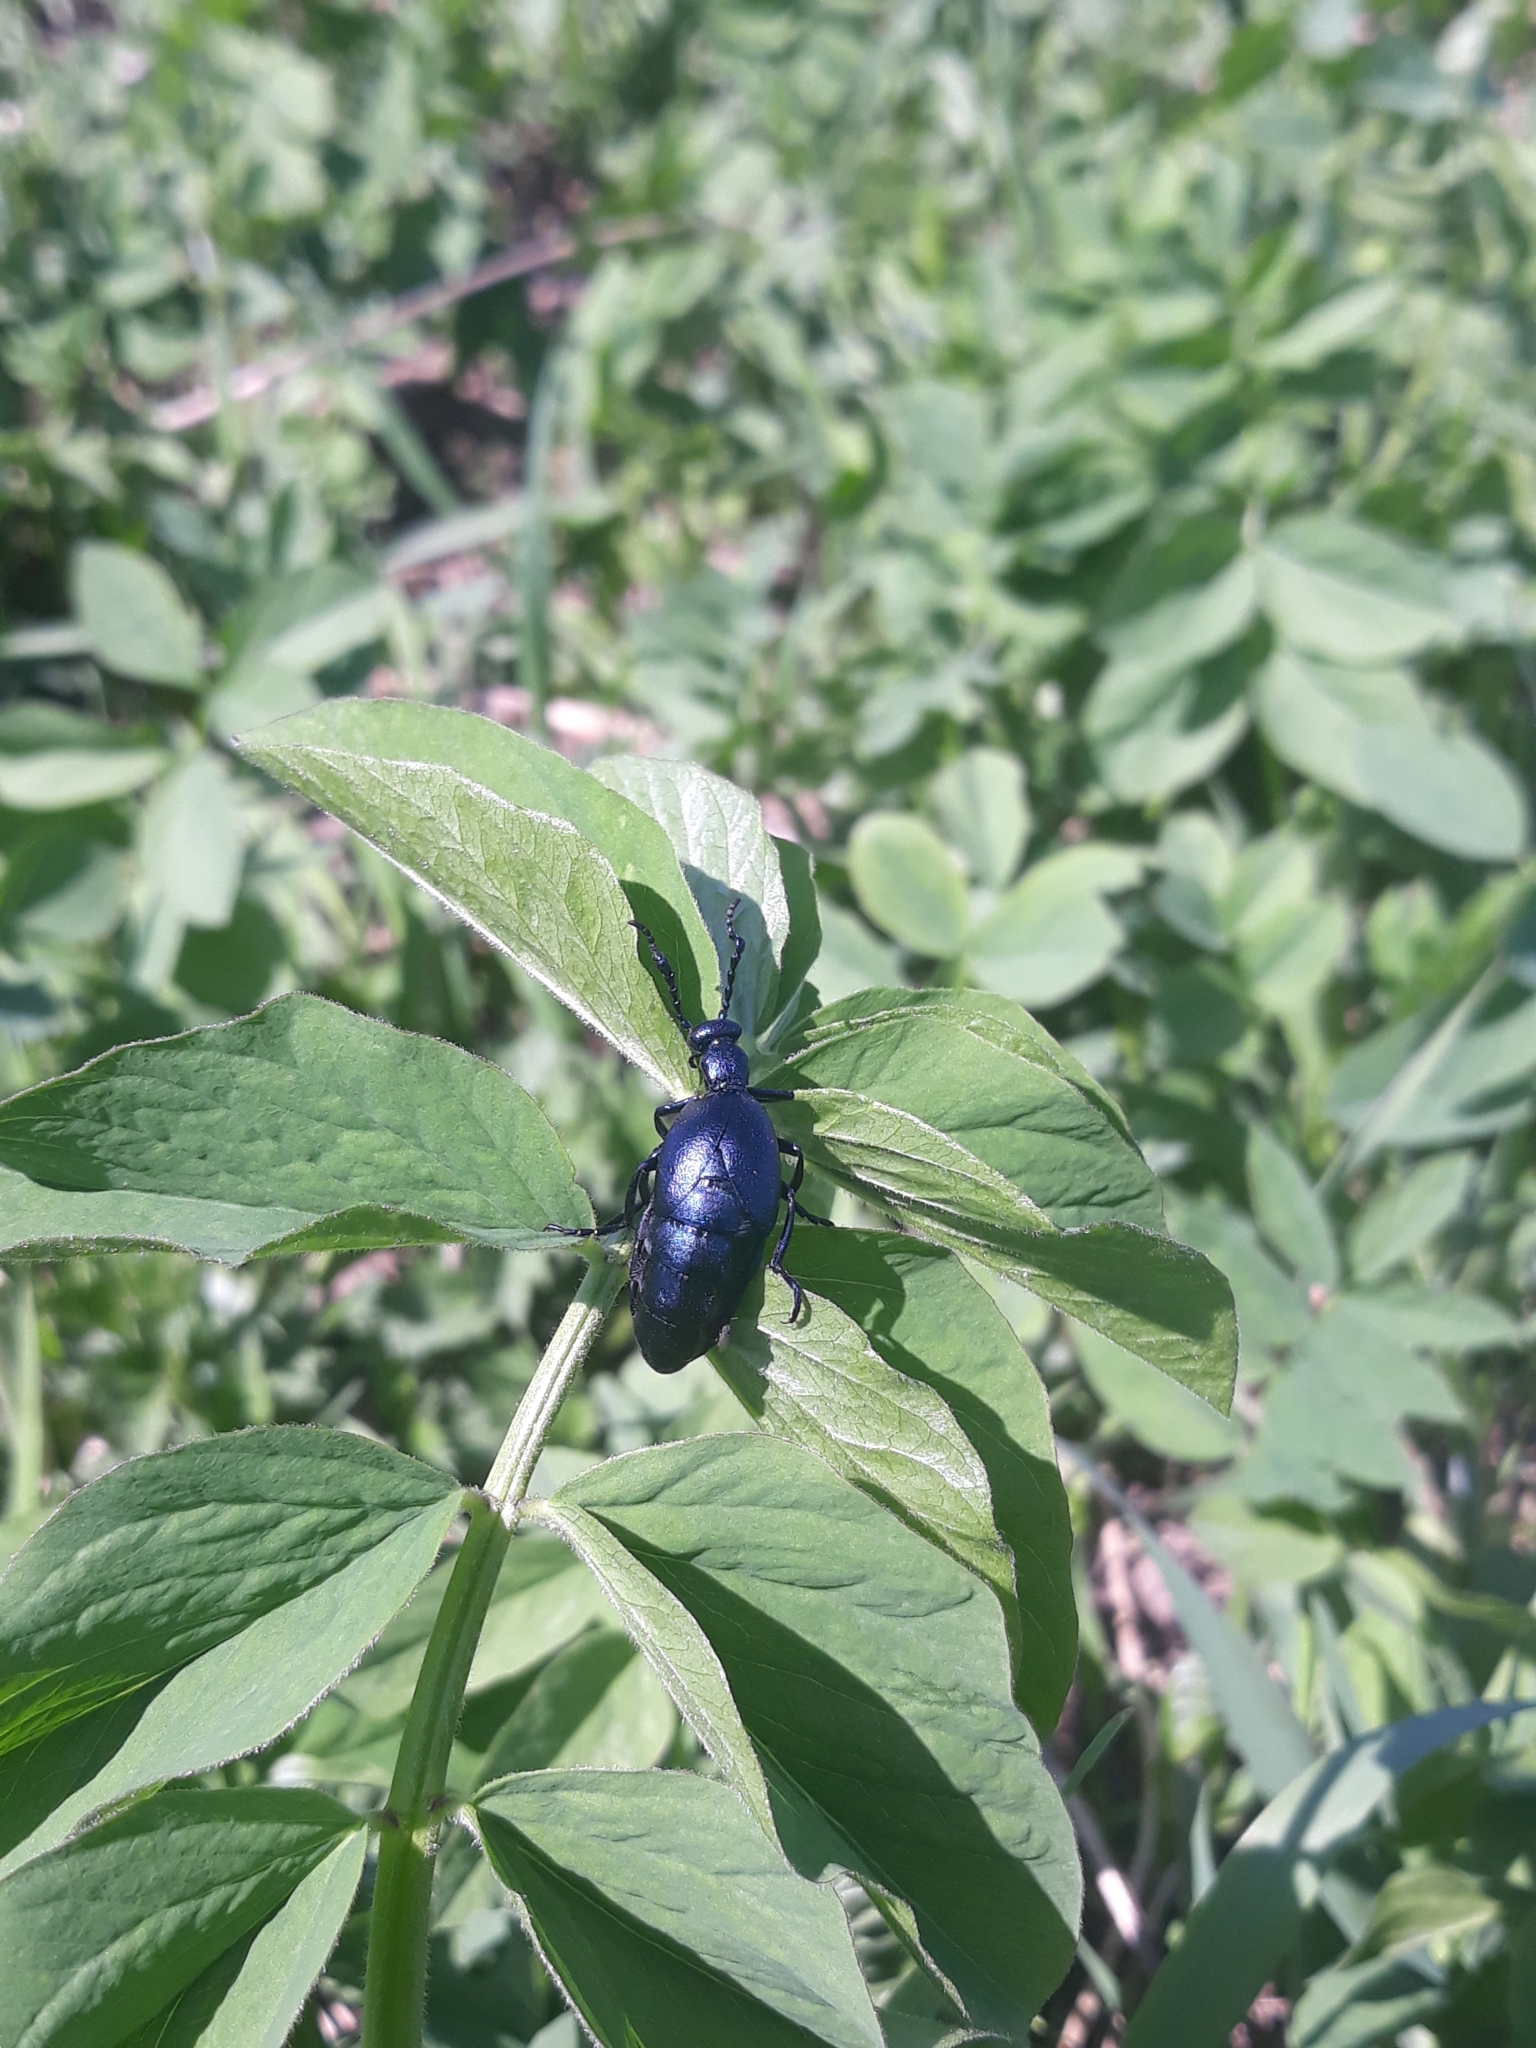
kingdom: Animalia
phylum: Arthropoda
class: Insecta
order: Coleoptera
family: Meloidae
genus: Meloe
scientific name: Meloe violaceus
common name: Violet oil-beetle
